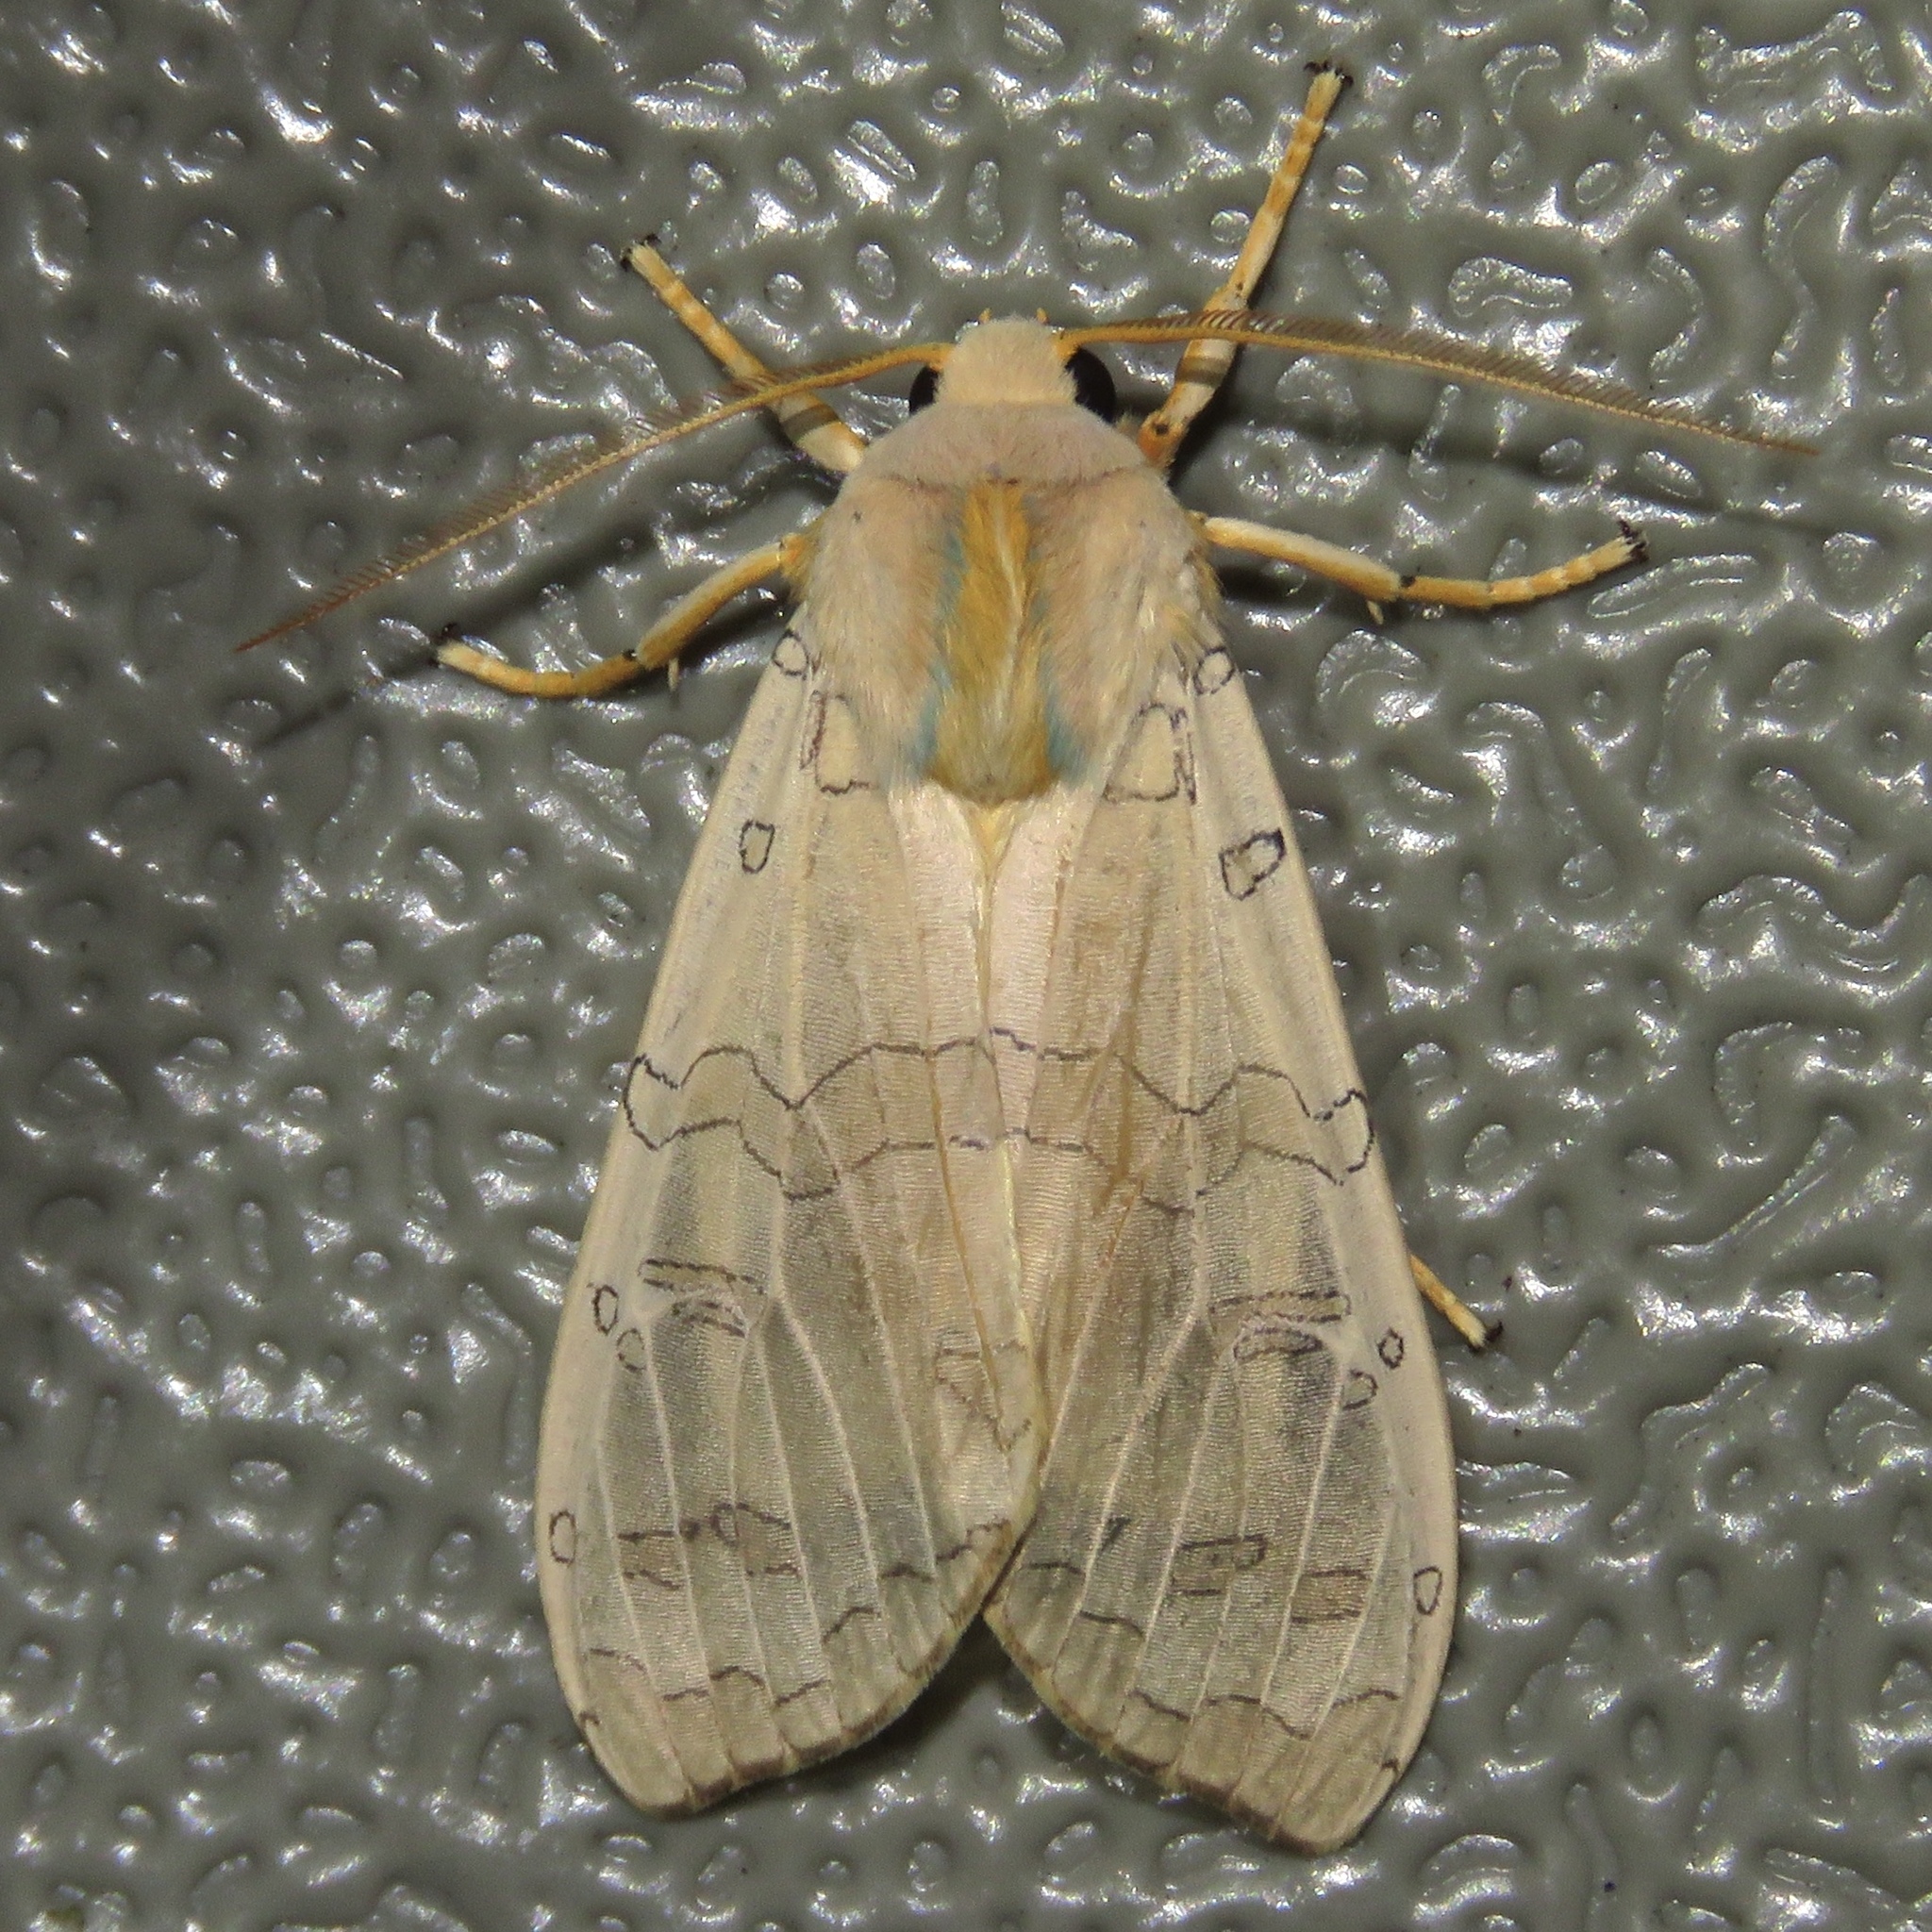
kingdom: Animalia
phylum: Arthropoda
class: Insecta
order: Lepidoptera
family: Erebidae
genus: Halysidota
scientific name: Halysidota tessellaris
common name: Banded tussock moth
